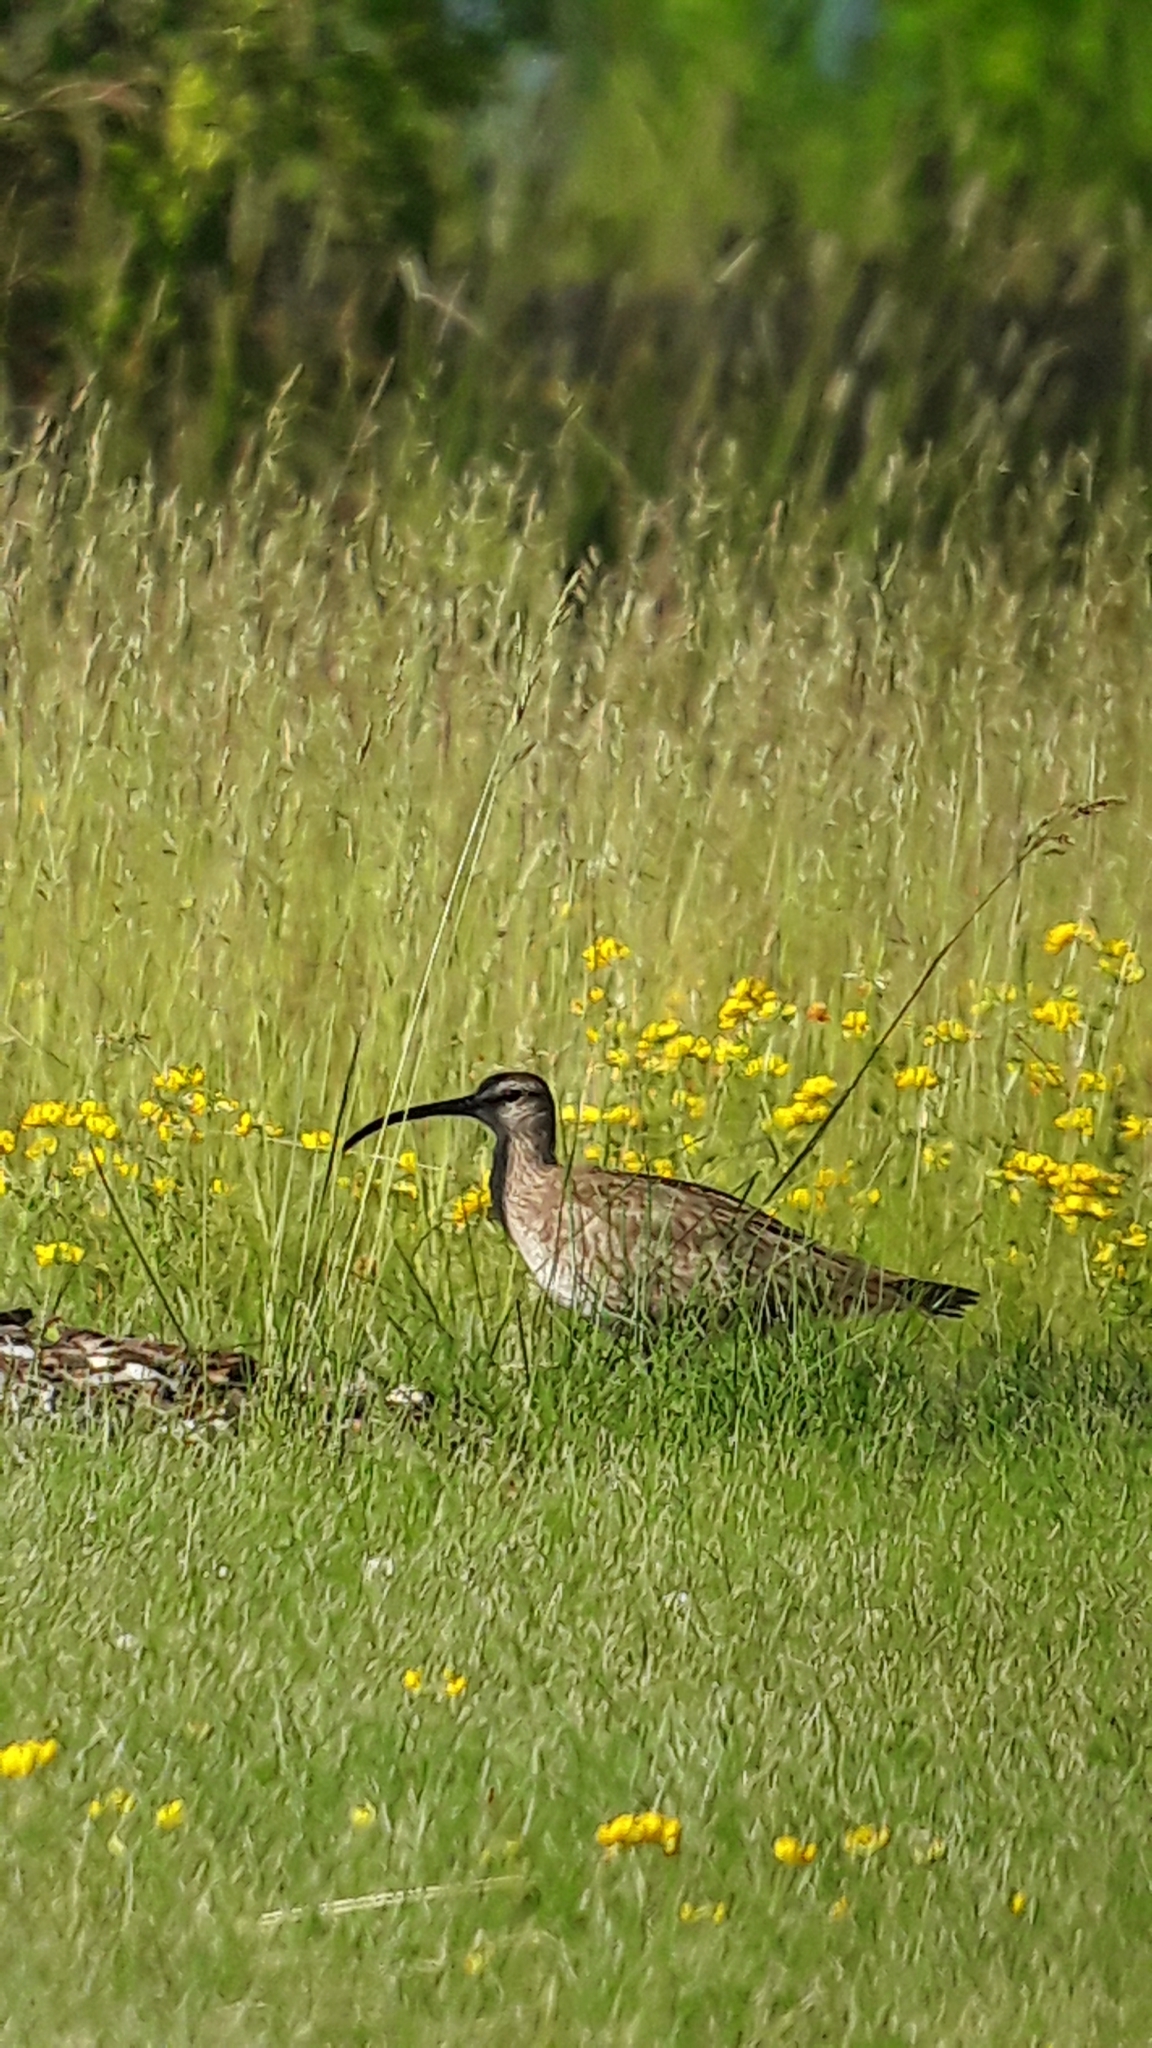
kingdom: Animalia
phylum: Chordata
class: Aves
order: Charadriiformes
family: Scolopacidae
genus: Numenius
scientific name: Numenius phaeopus
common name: Whimbrel
